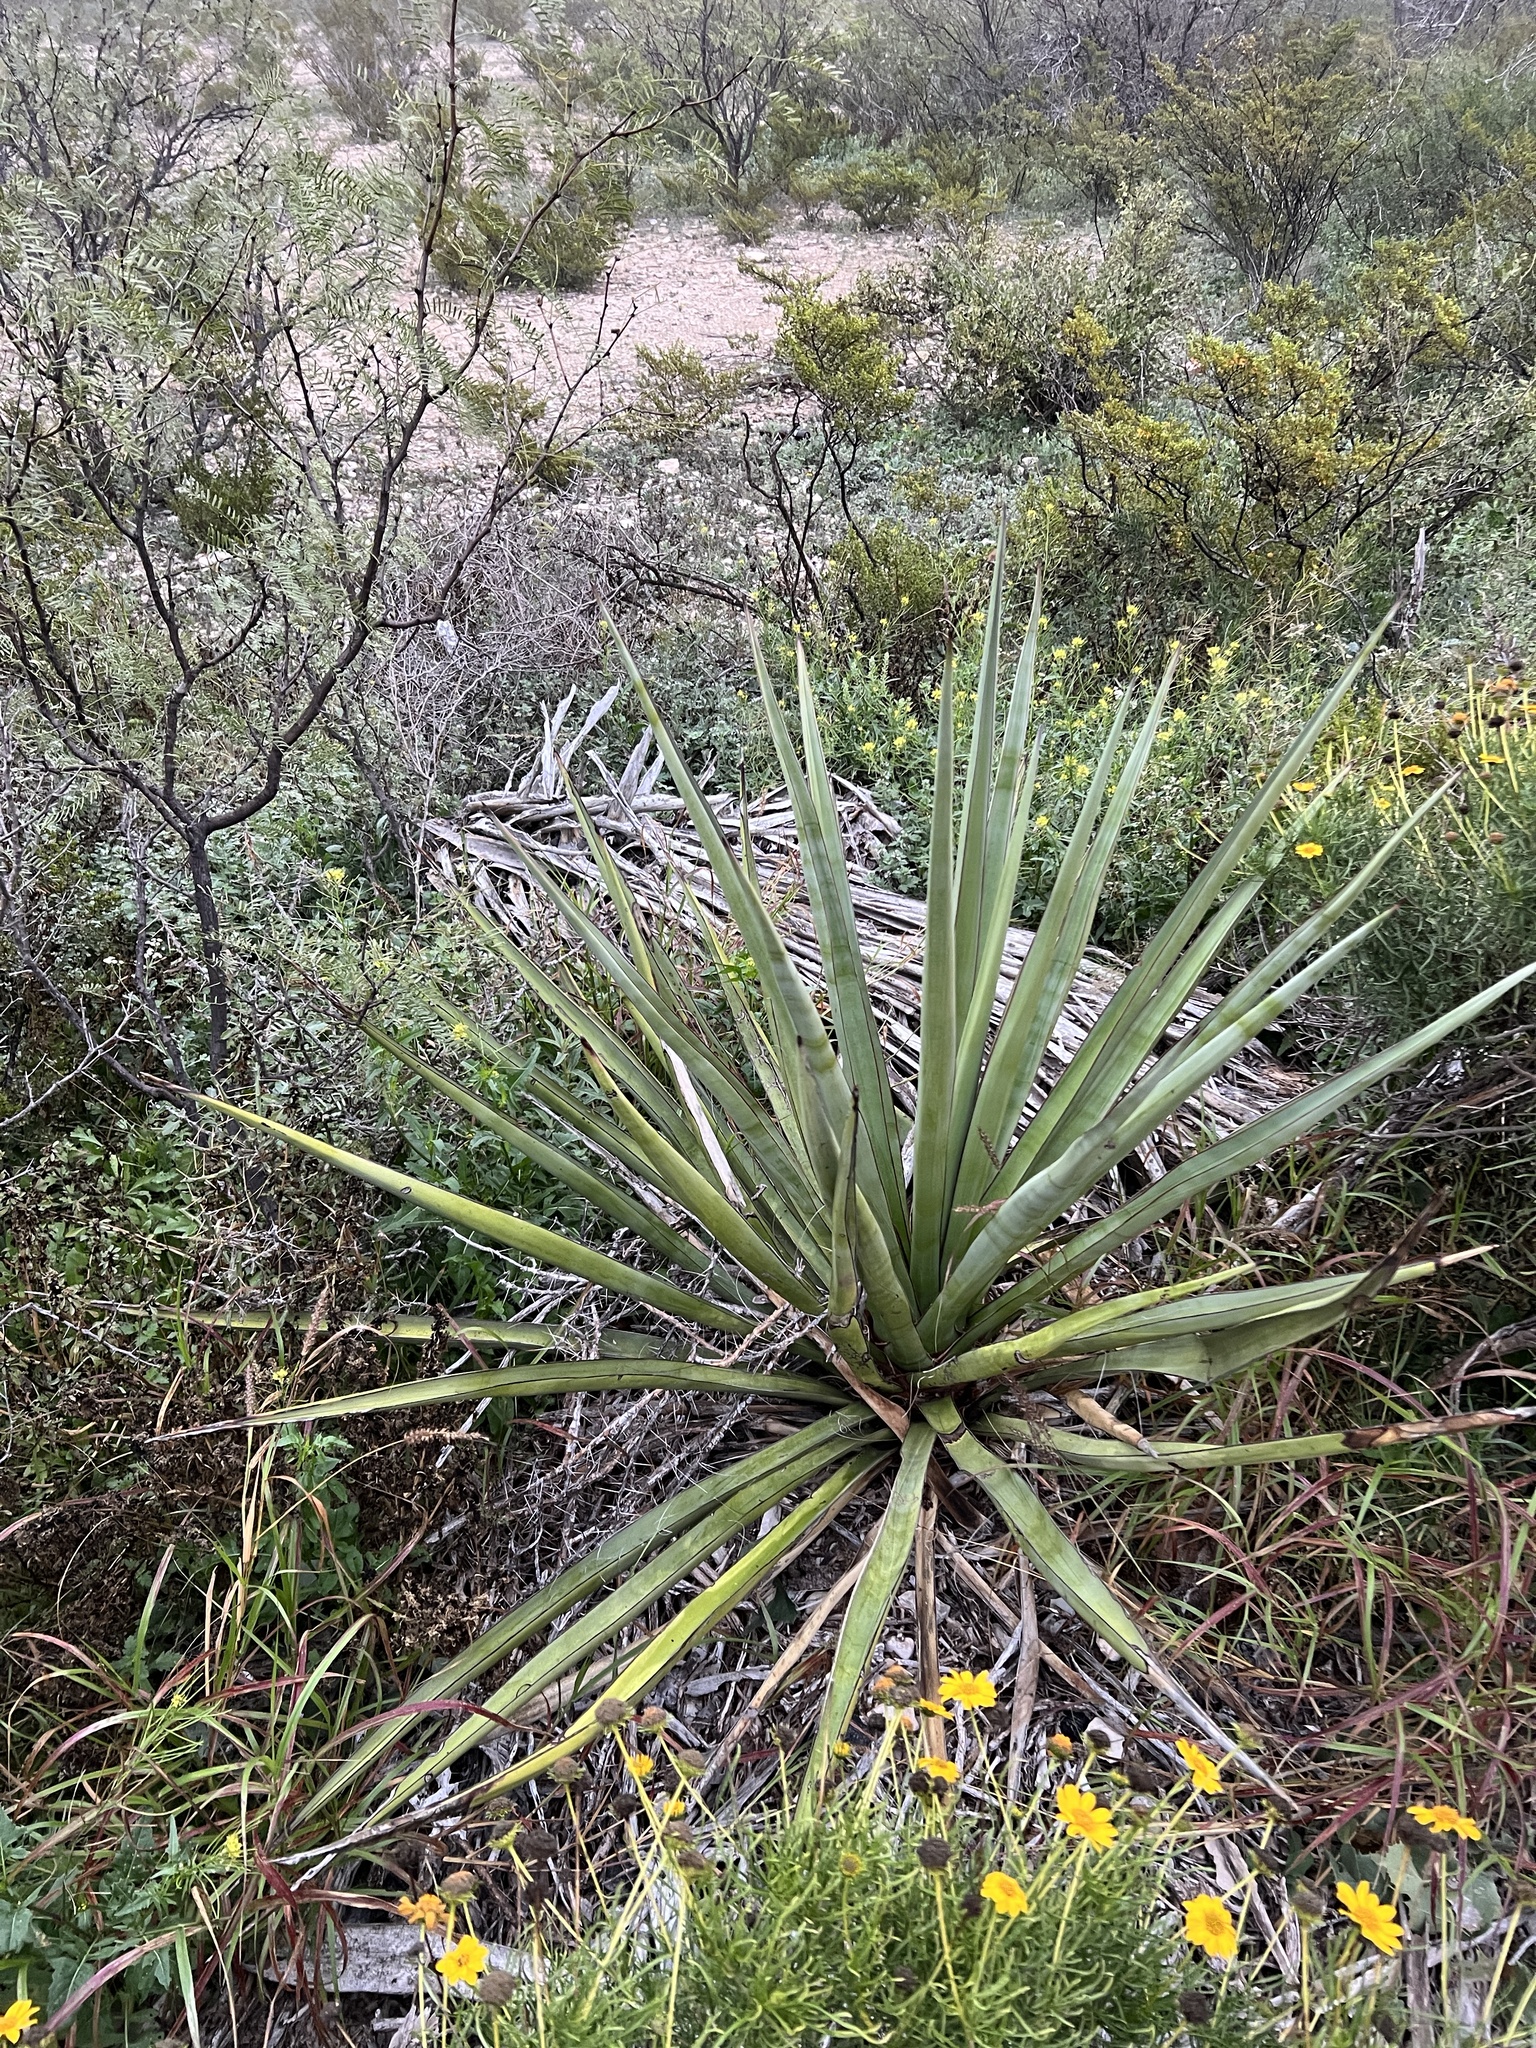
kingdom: Plantae
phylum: Tracheophyta
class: Liliopsida
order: Asparagales
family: Asparagaceae
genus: Yucca
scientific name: Yucca treculiana
